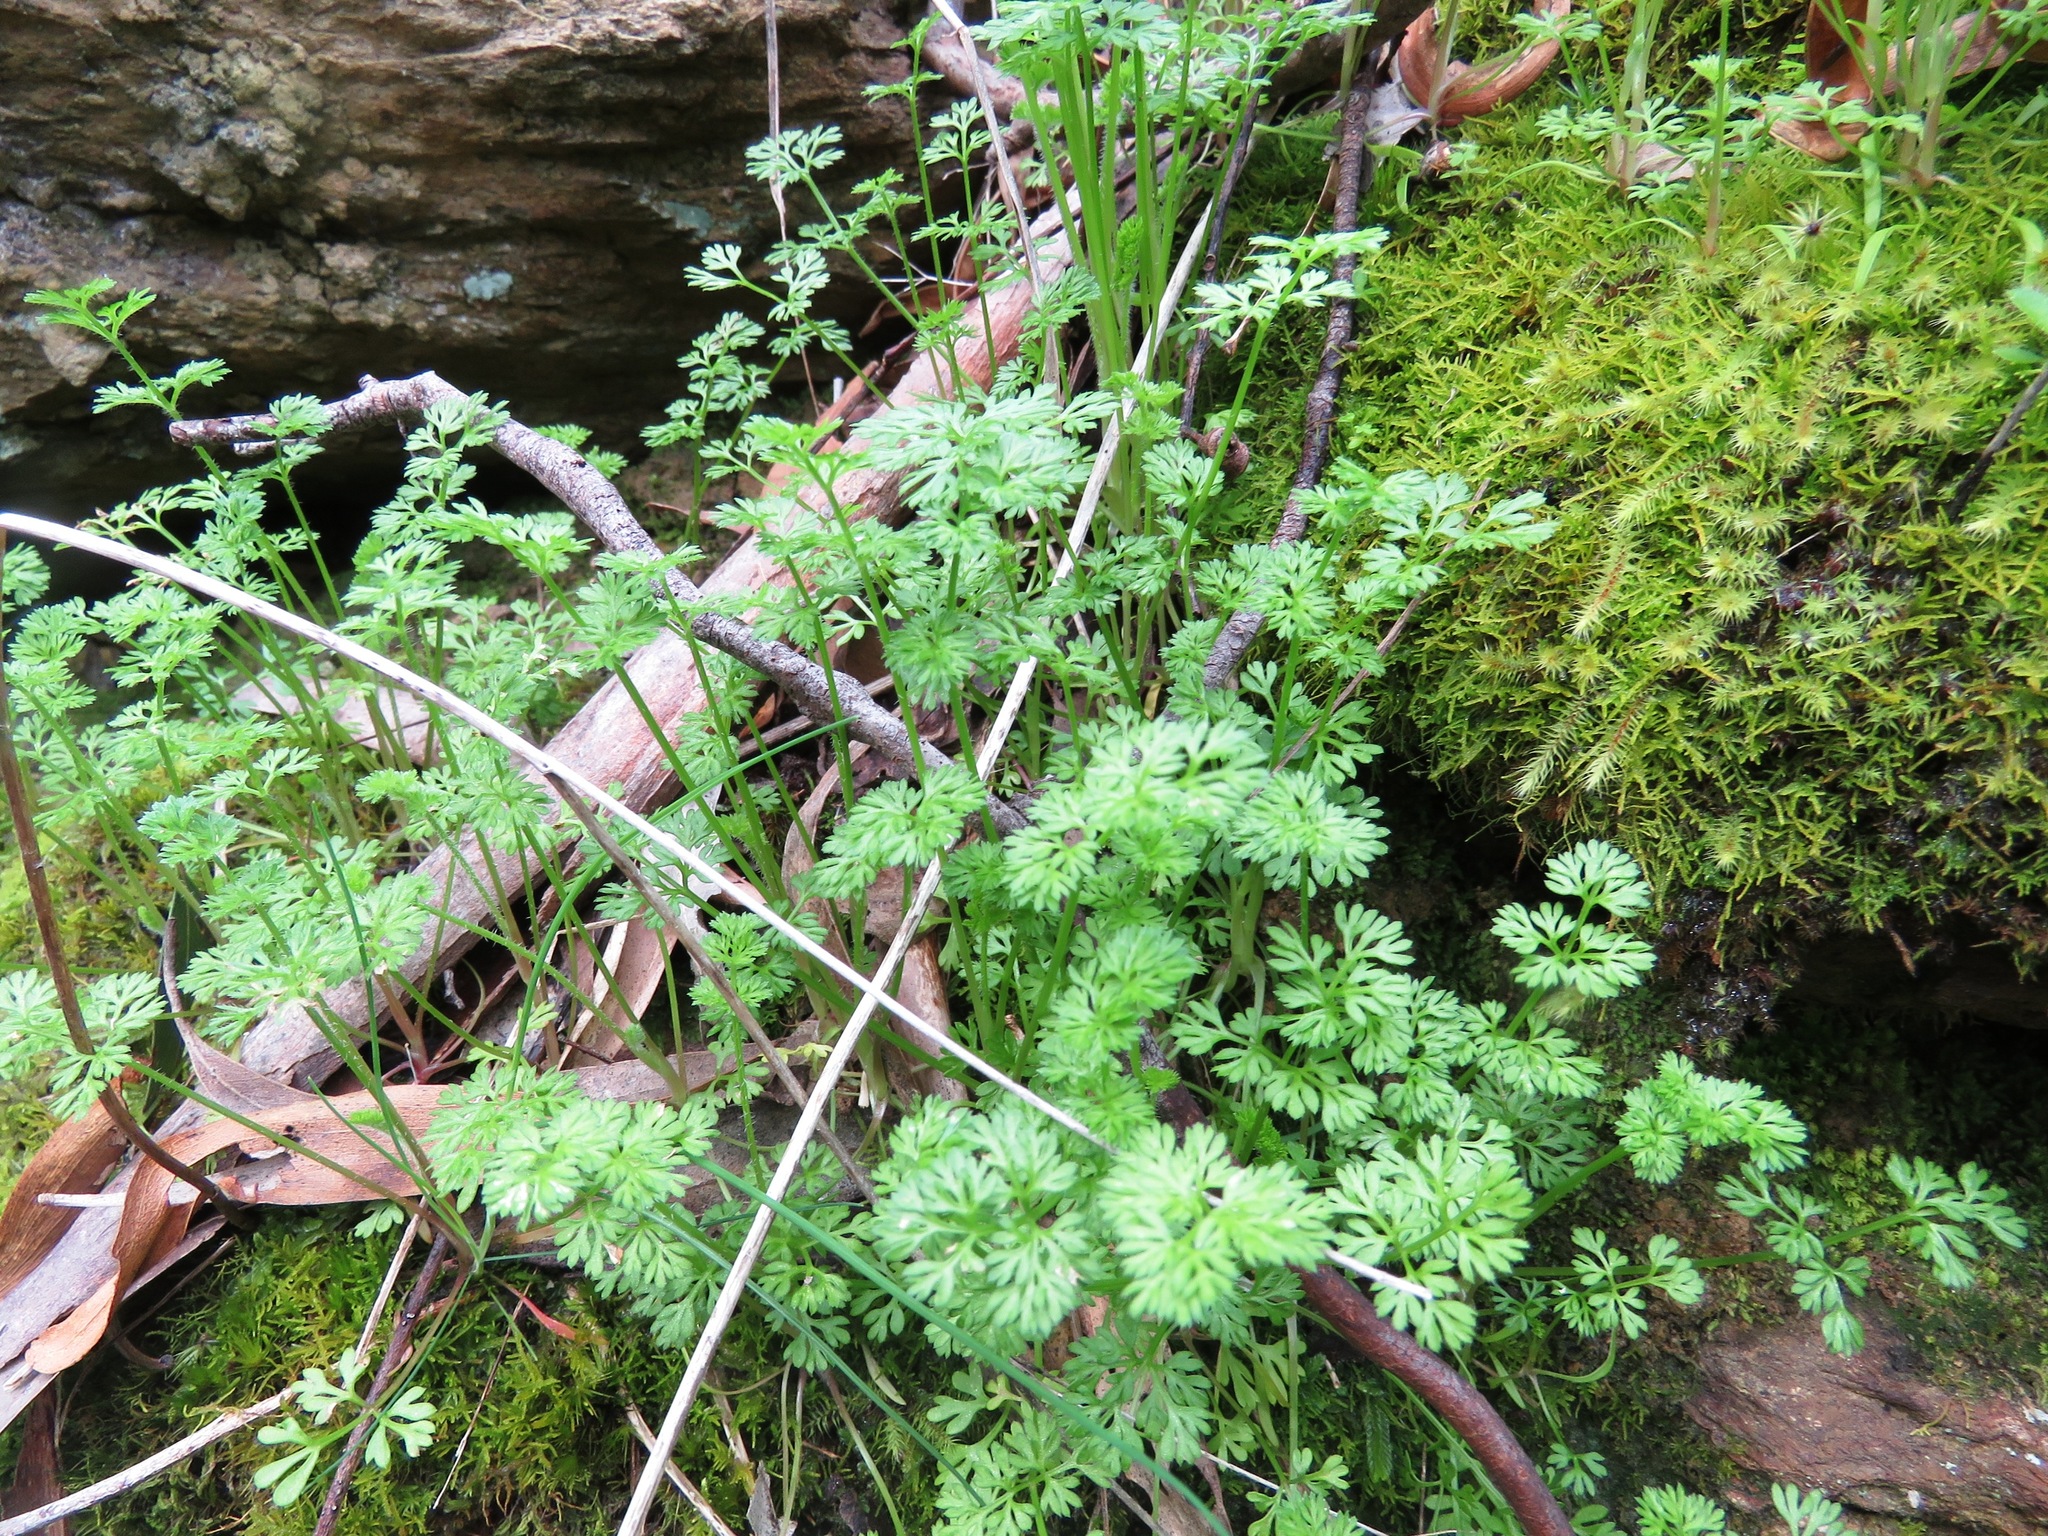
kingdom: Plantae
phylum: Tracheophyta
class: Magnoliopsida
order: Apiales
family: Apiaceae
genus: Daucus
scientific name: Daucus glochidiatus
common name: Australian carrot
